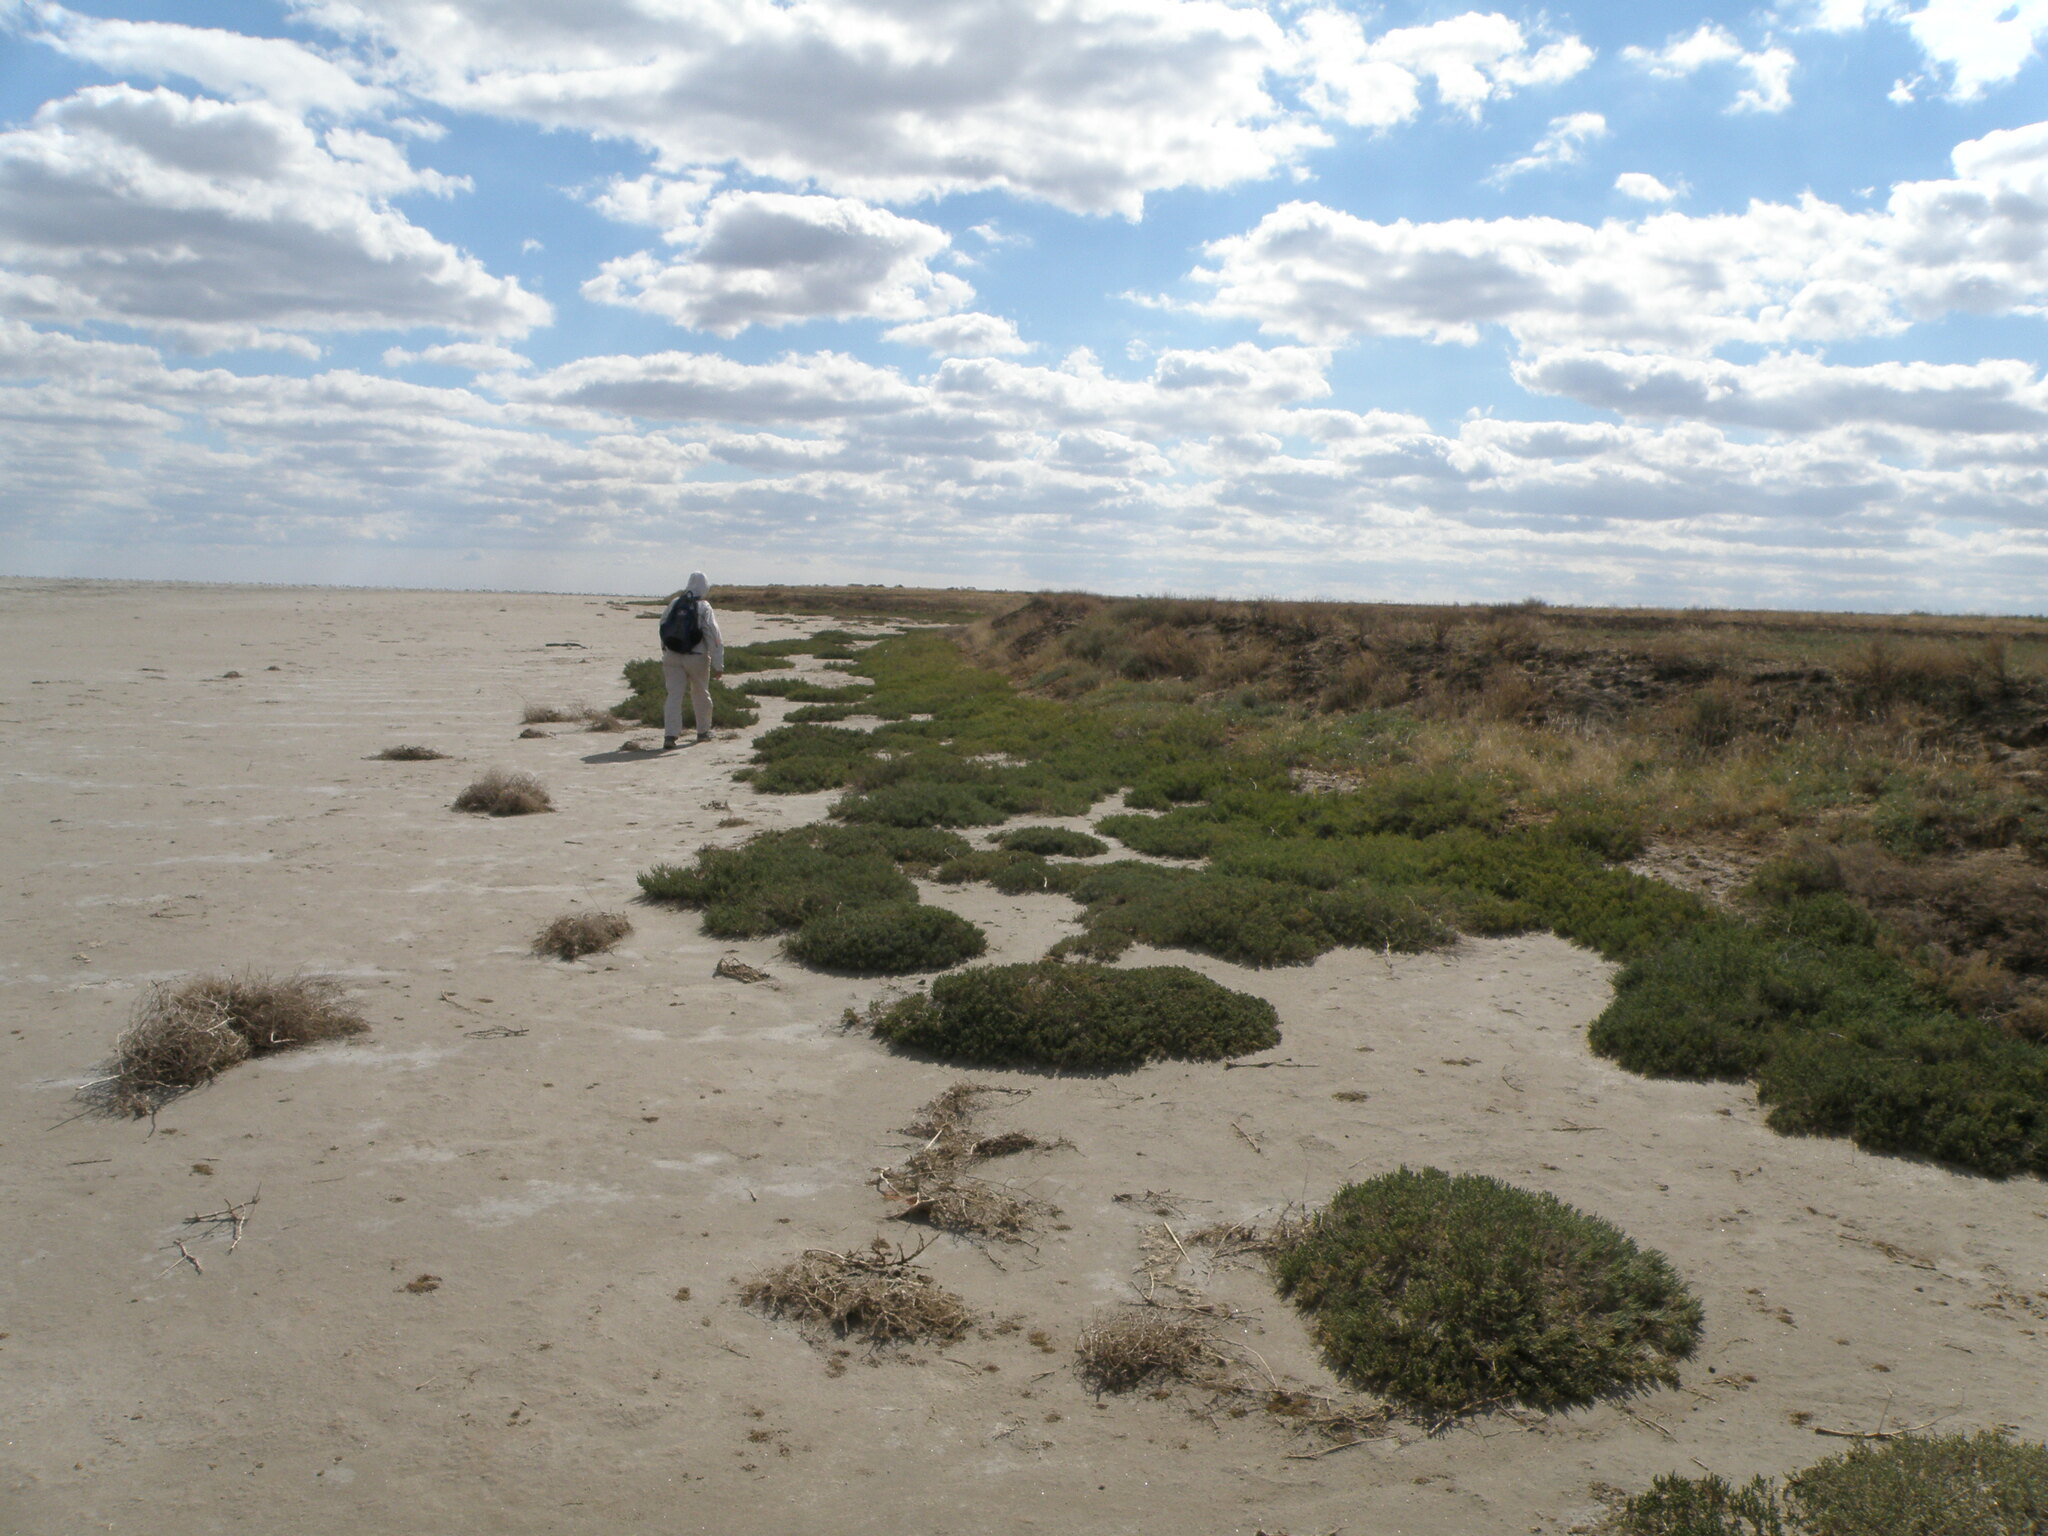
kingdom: Plantae
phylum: Tracheophyta
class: Magnoliopsida
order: Caryophyllales
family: Amaranthaceae
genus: Halocnemum
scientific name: Halocnemum strobilaceum
